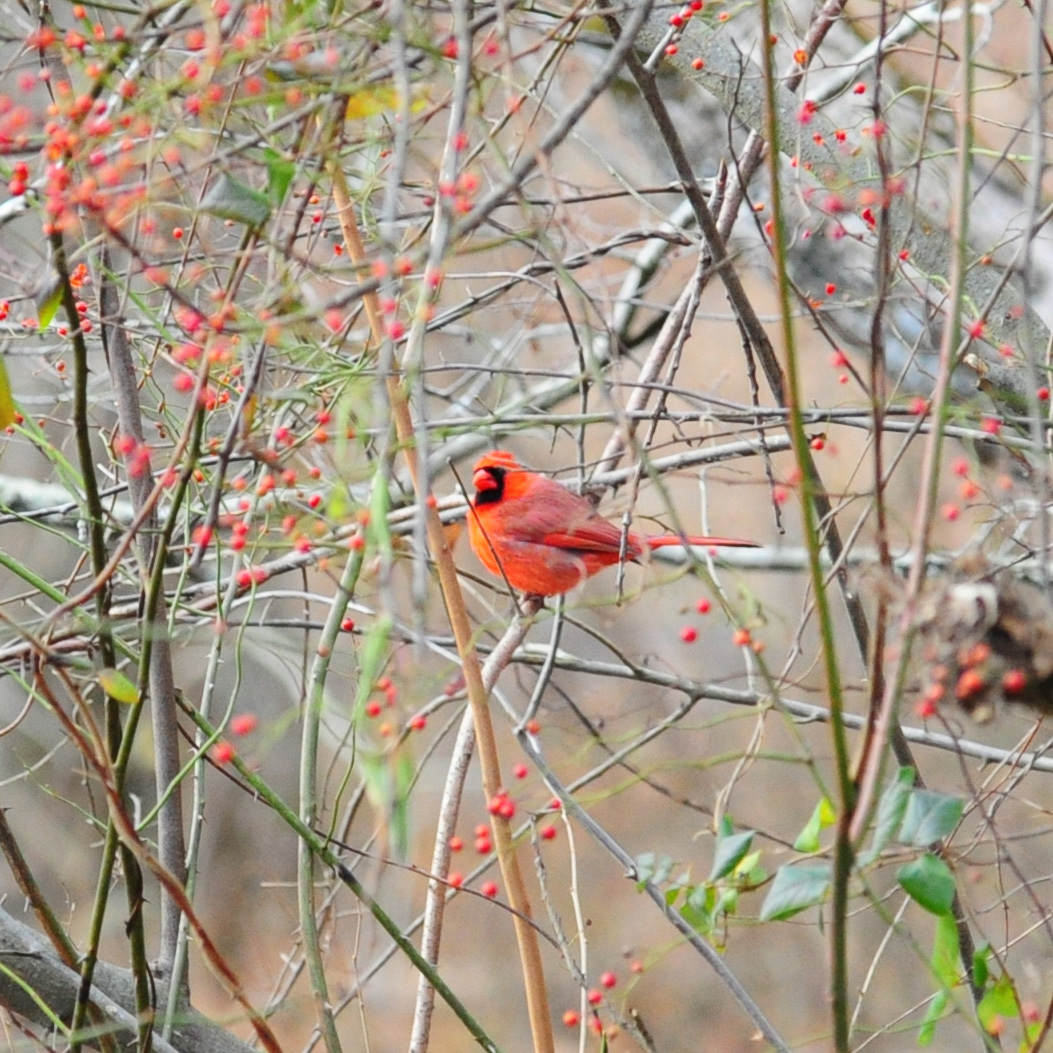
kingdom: Animalia
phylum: Chordata
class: Aves
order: Passeriformes
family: Cardinalidae
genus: Cardinalis
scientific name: Cardinalis cardinalis
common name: Northern cardinal
